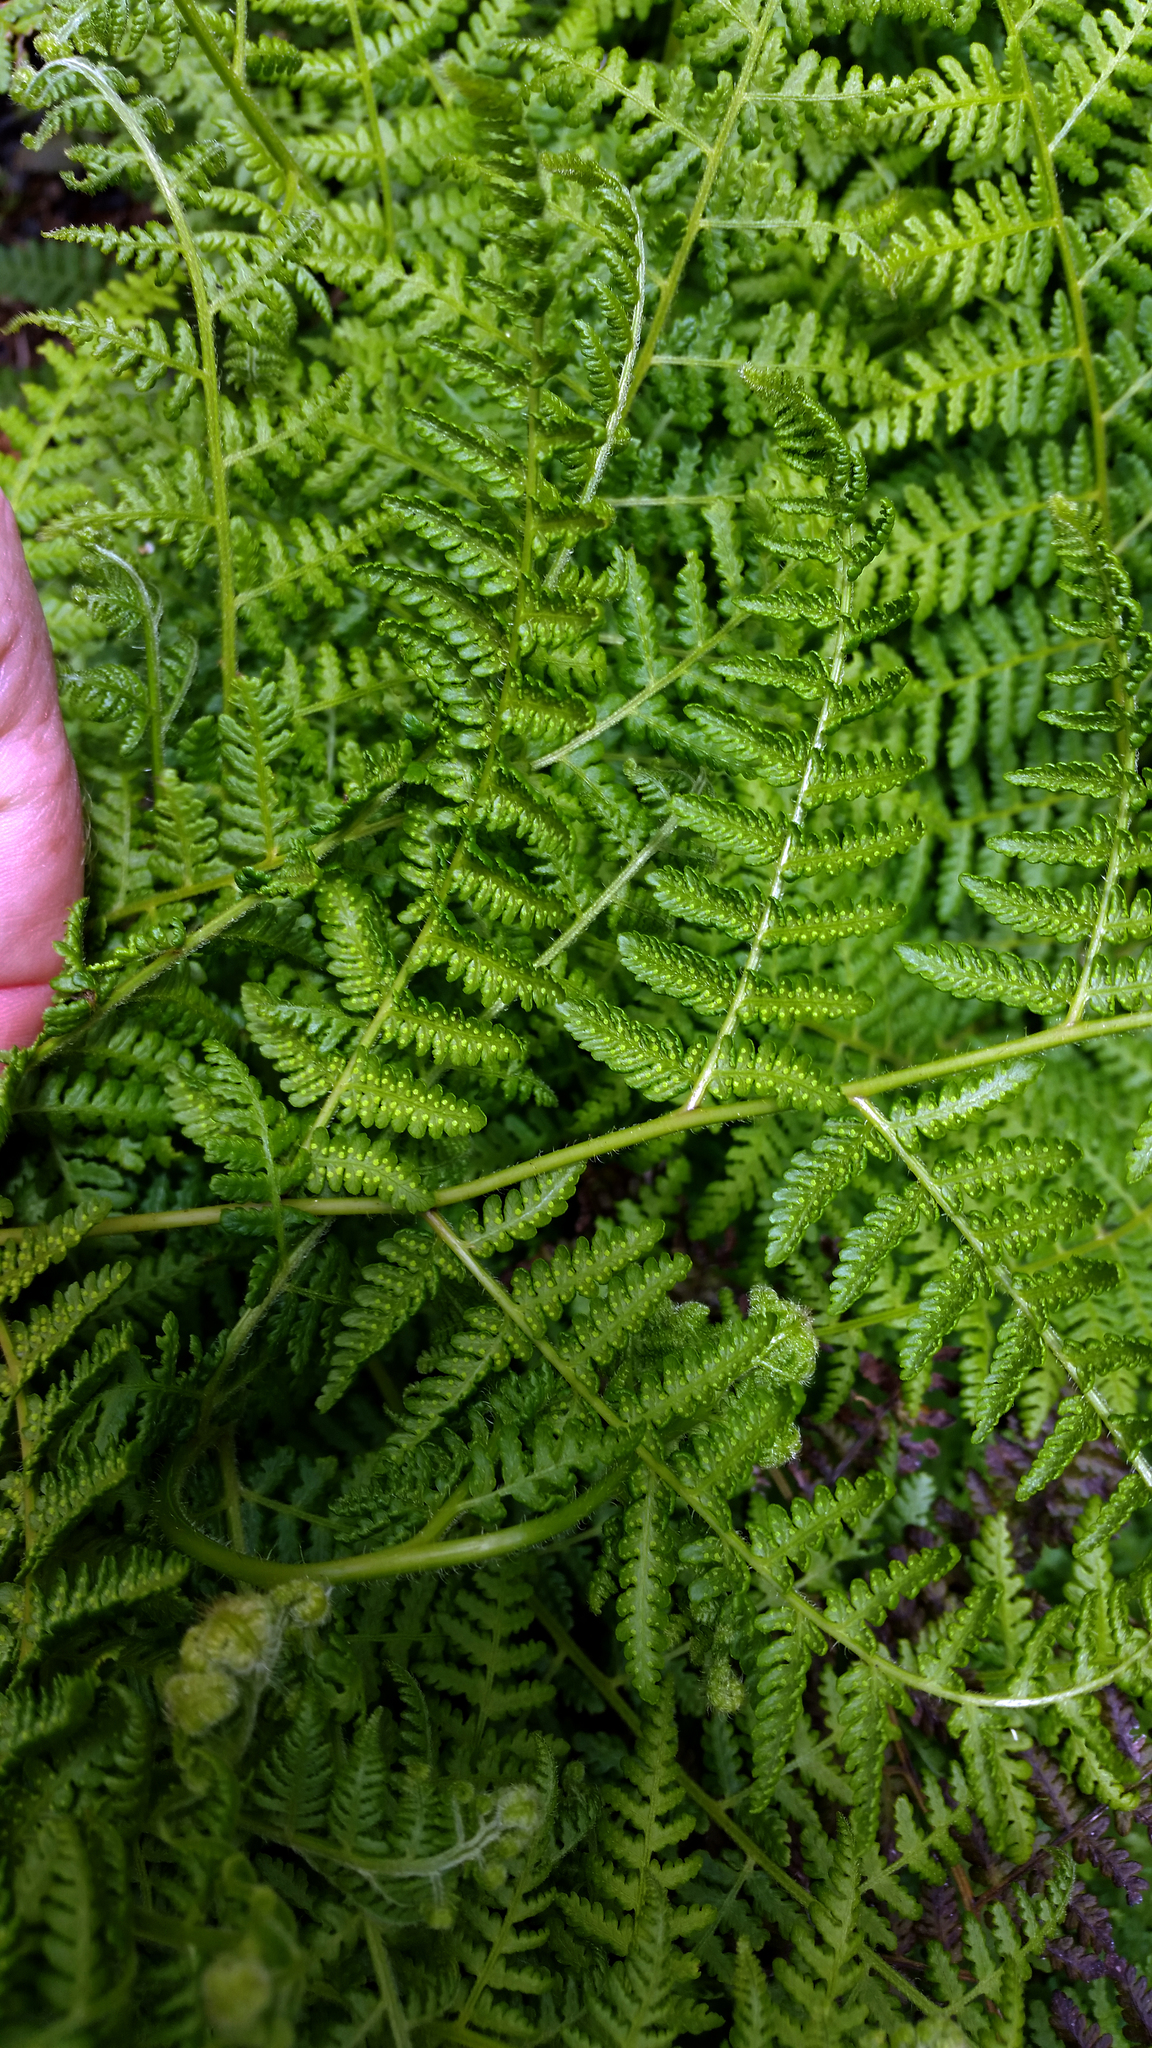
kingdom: Plantae
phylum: Tracheophyta
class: Polypodiopsida
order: Polypodiales
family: Dennstaedtiaceae
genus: Hypolepis
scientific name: Hypolepis ambigua
